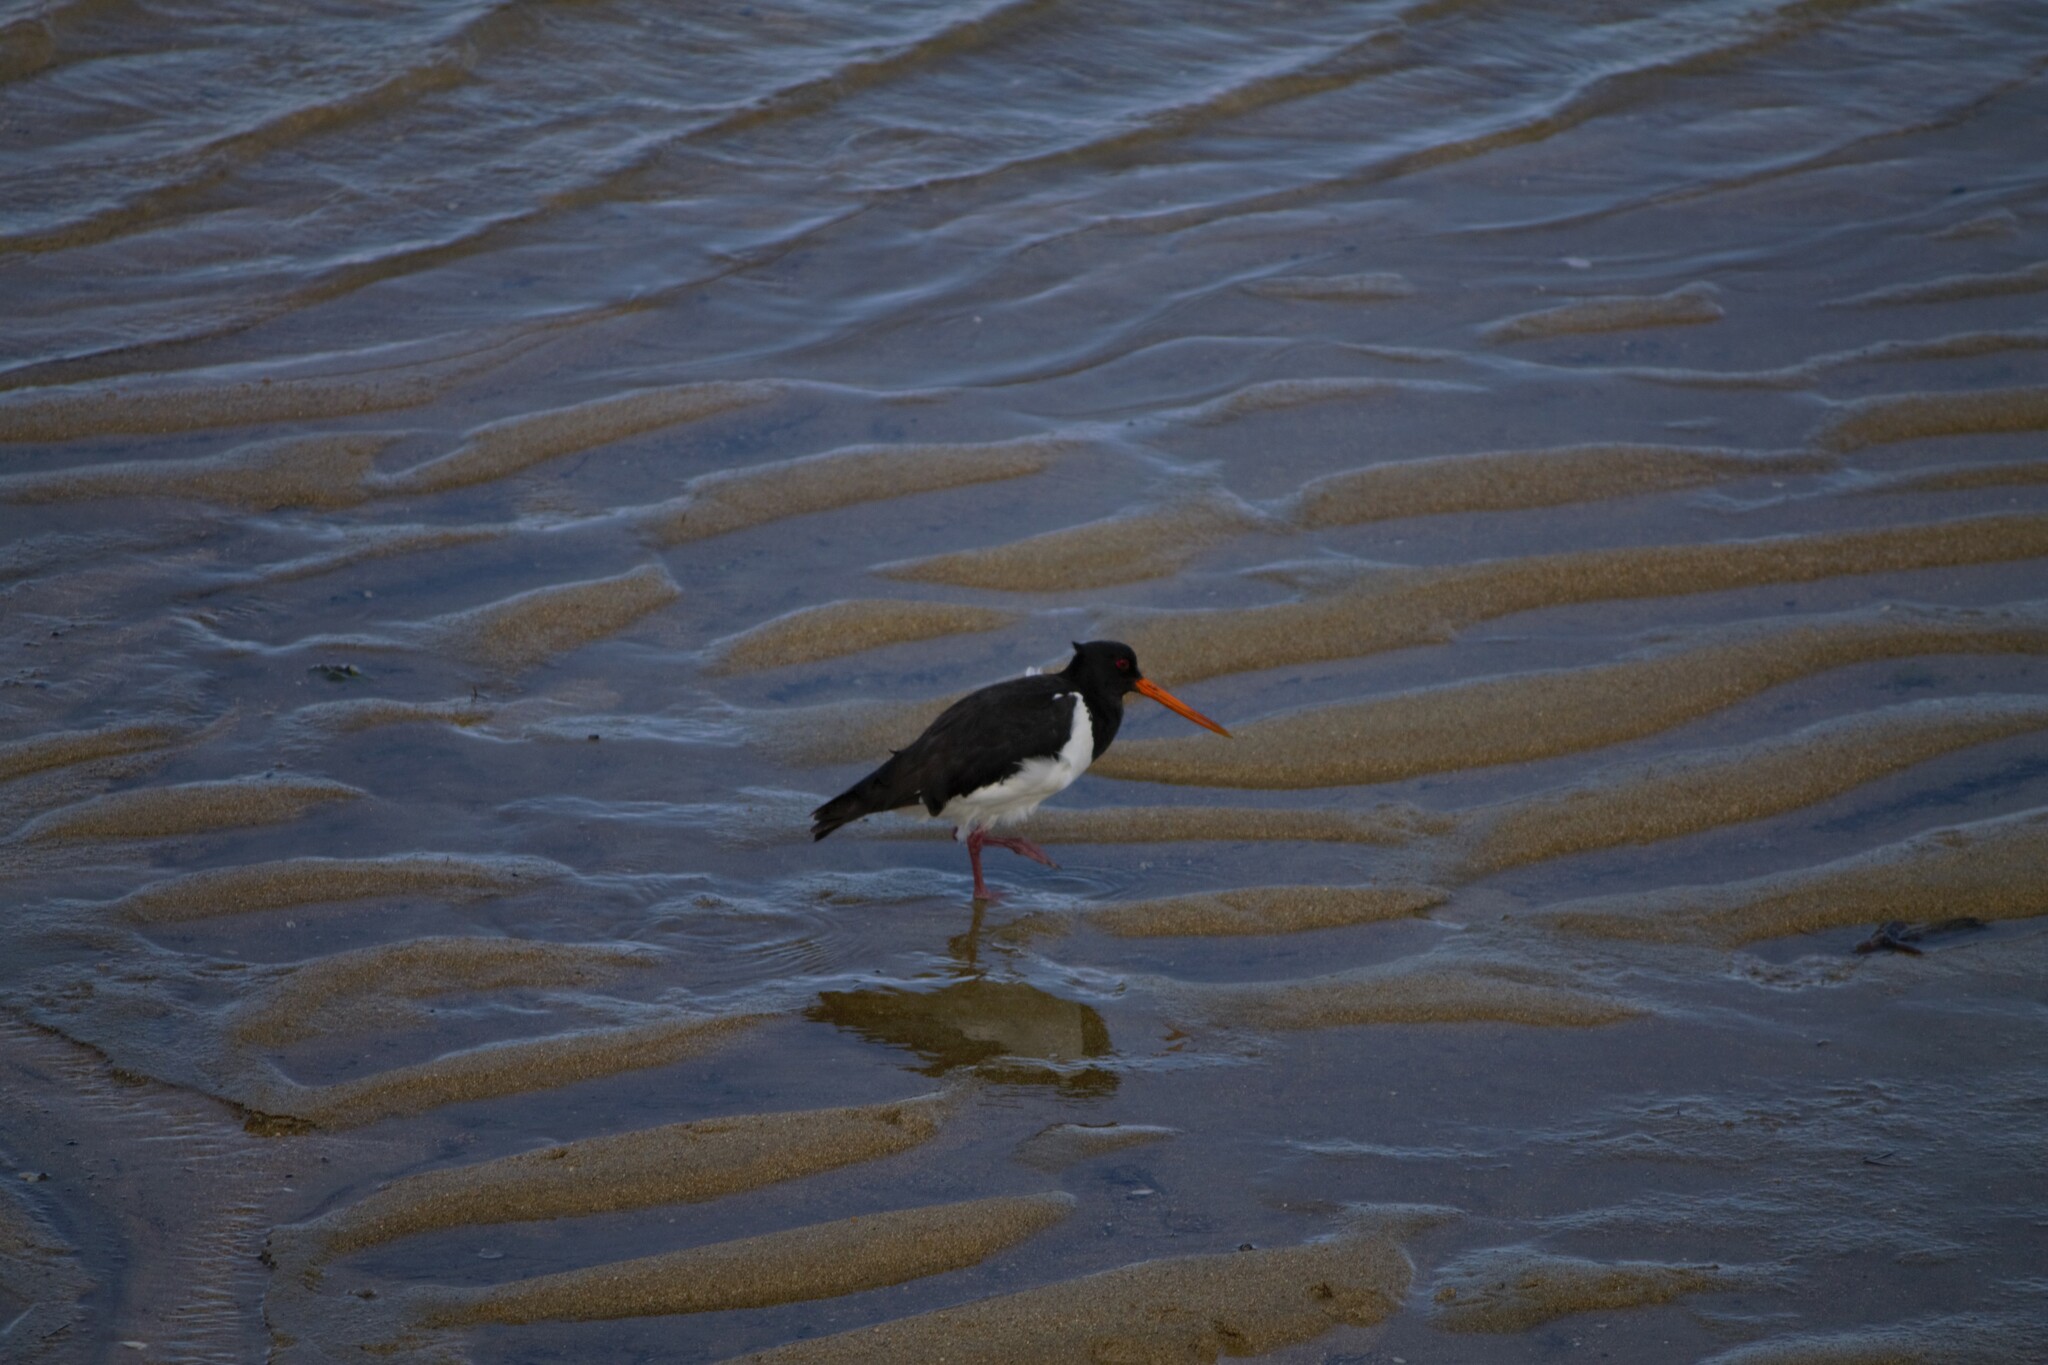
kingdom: Animalia
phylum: Chordata
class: Aves
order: Charadriiformes
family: Haematopodidae
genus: Haematopus
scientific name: Haematopus finschi
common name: South island oystercatcher
